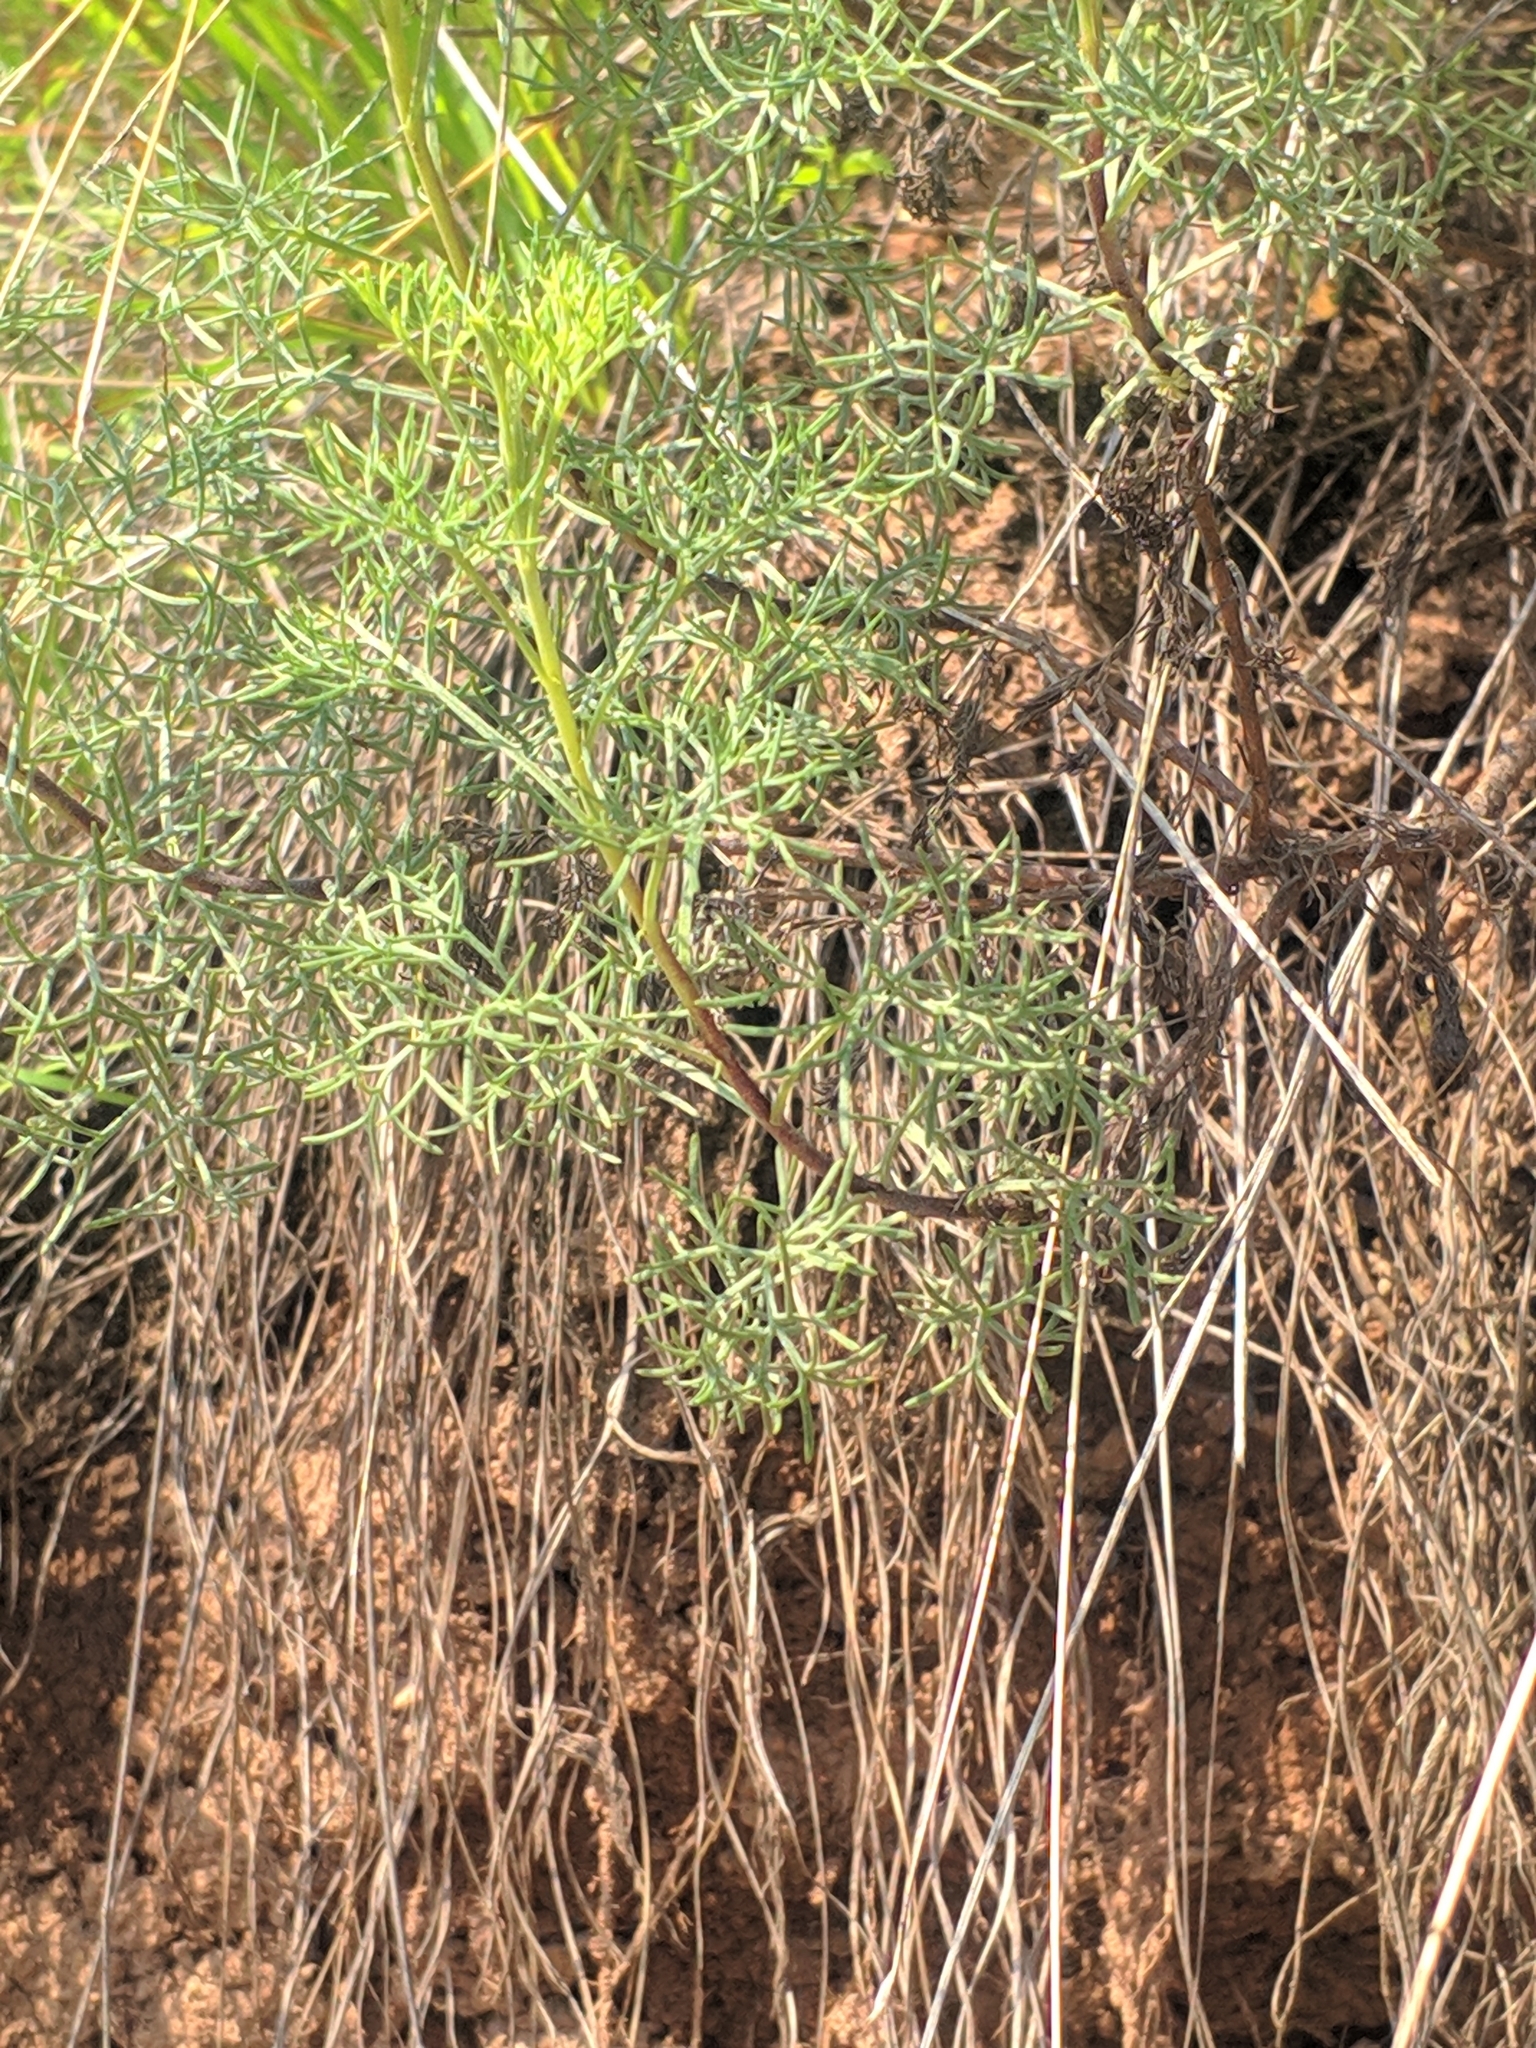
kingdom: Plantae
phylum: Tracheophyta
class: Magnoliopsida
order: Asterales
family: Asteraceae
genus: Artemisia
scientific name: Artemisia alba
